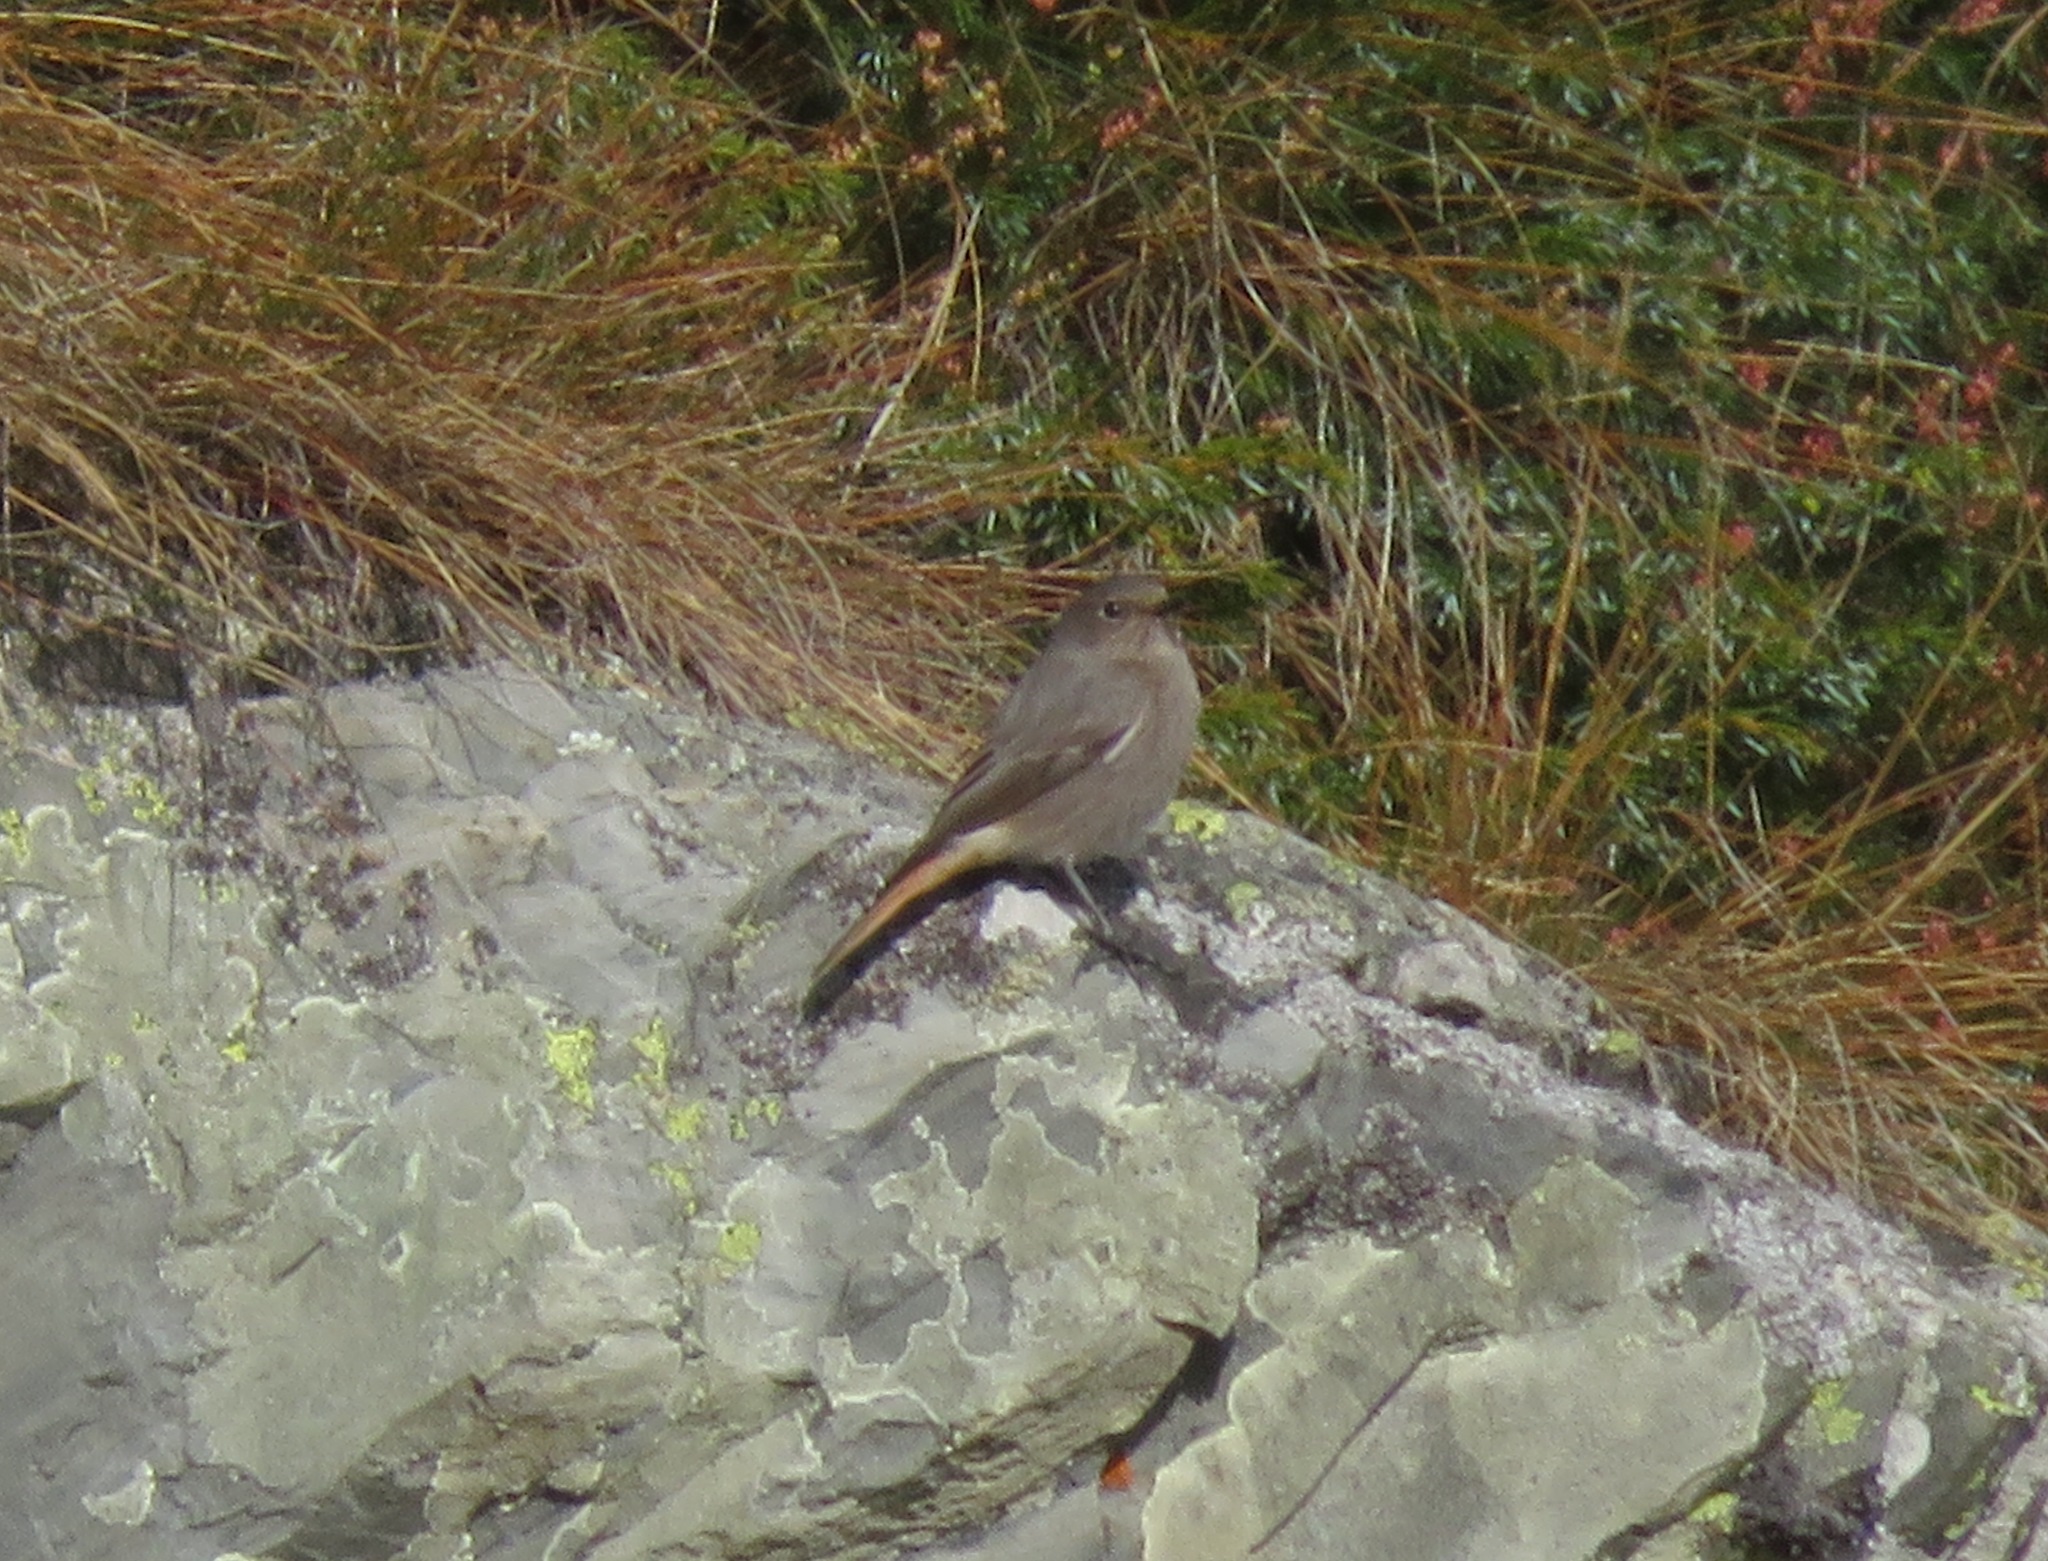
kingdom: Animalia
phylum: Chordata
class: Aves
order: Passeriformes
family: Muscicapidae
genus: Phoenicurus
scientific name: Phoenicurus ochruros
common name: Black redstart
